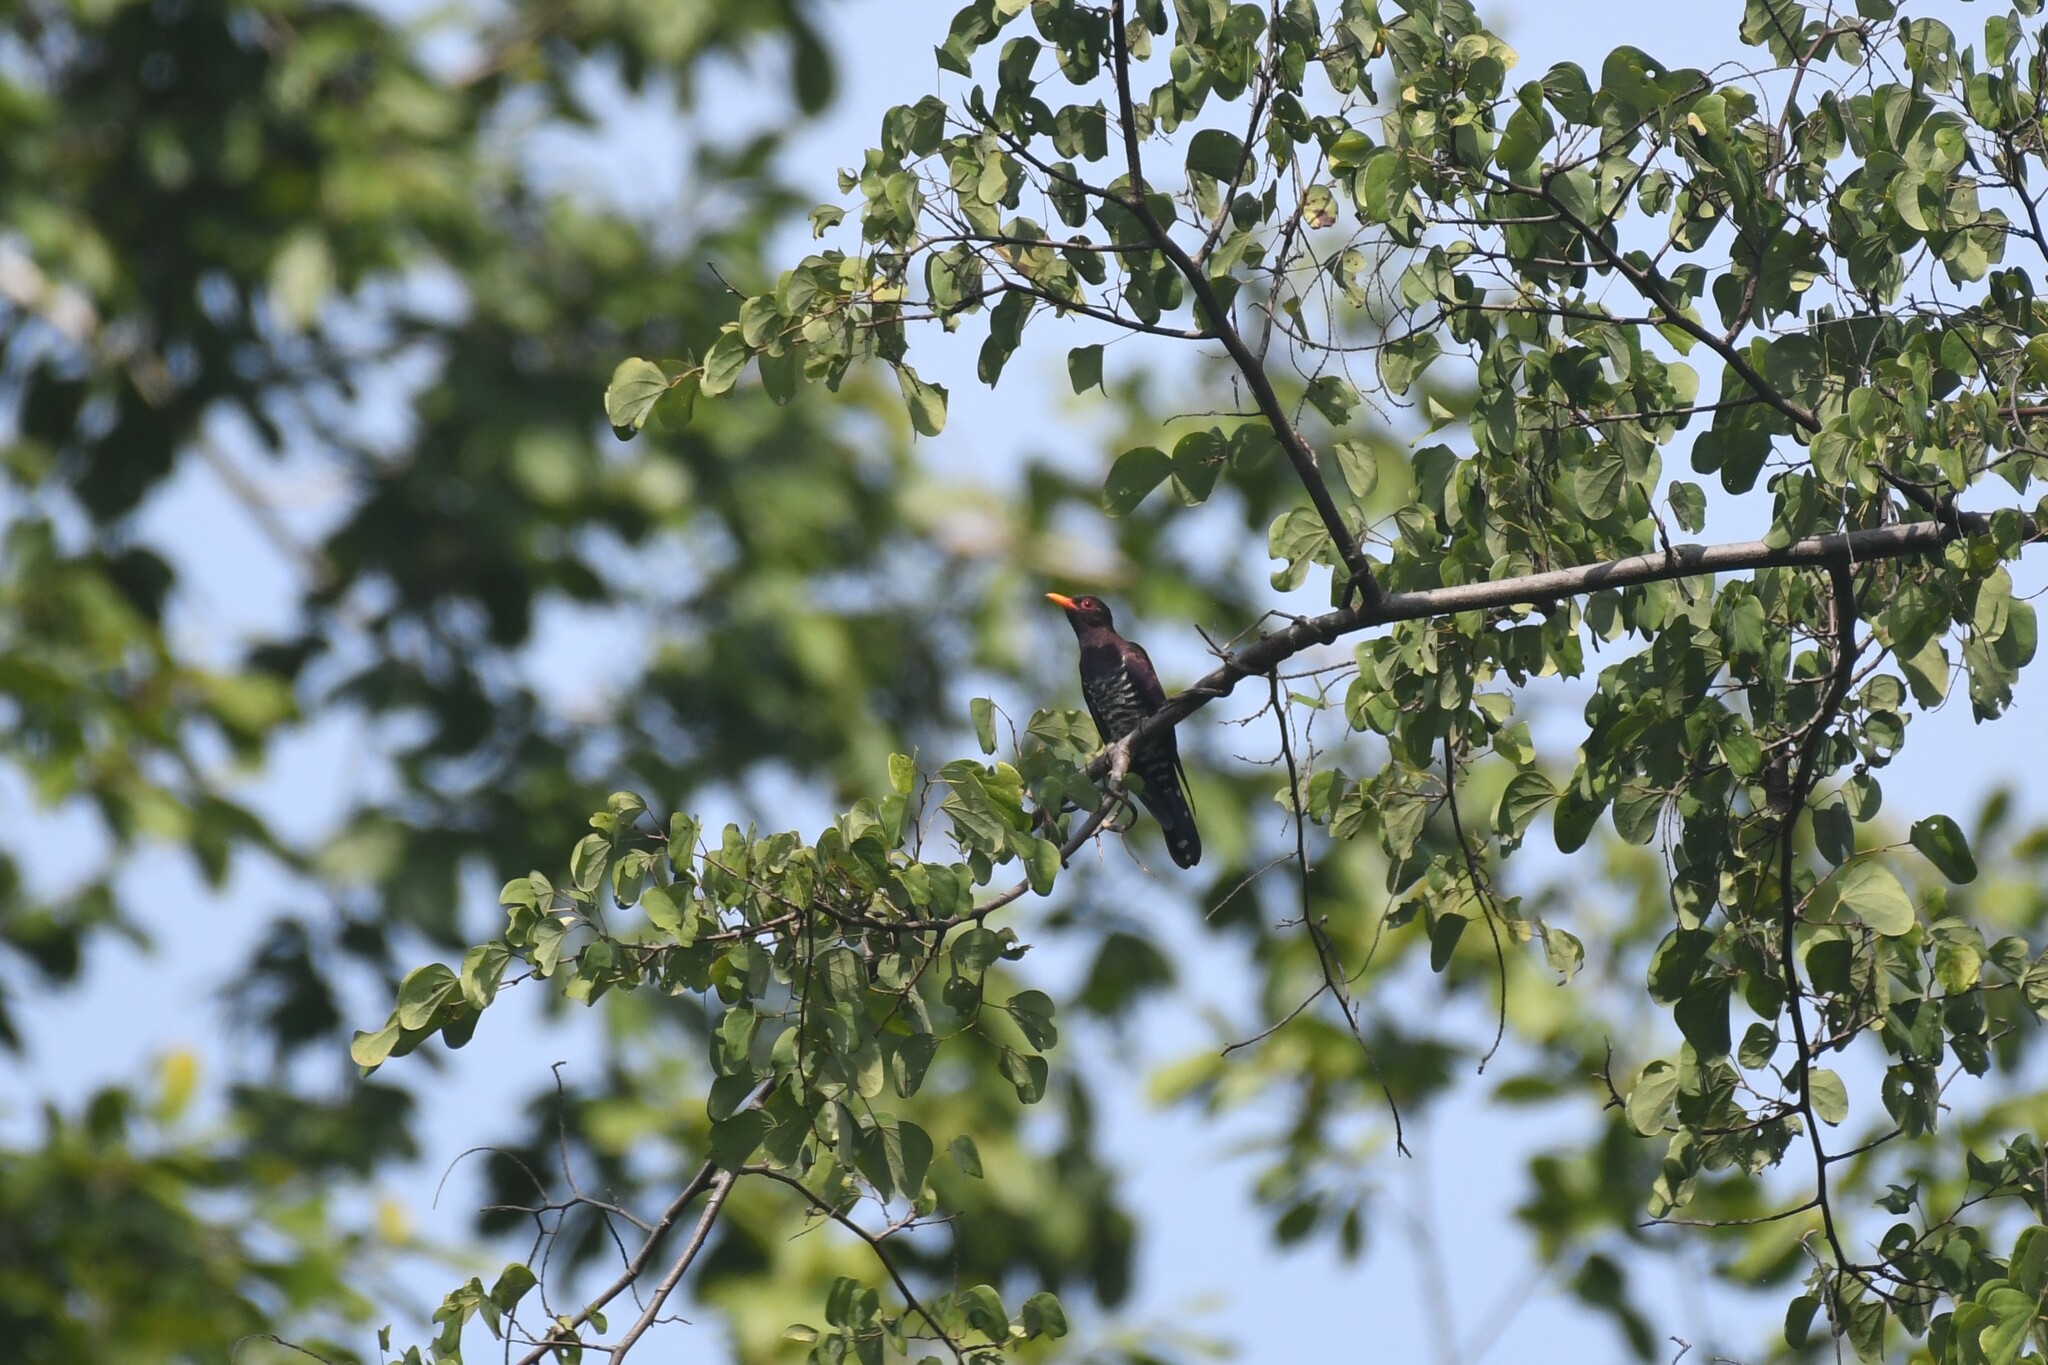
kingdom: Animalia
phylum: Chordata
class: Aves
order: Cuculiformes
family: Cuculidae
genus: Chrysococcyx
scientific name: Chrysococcyx xanthorhynchus
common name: Violet cuckoo
